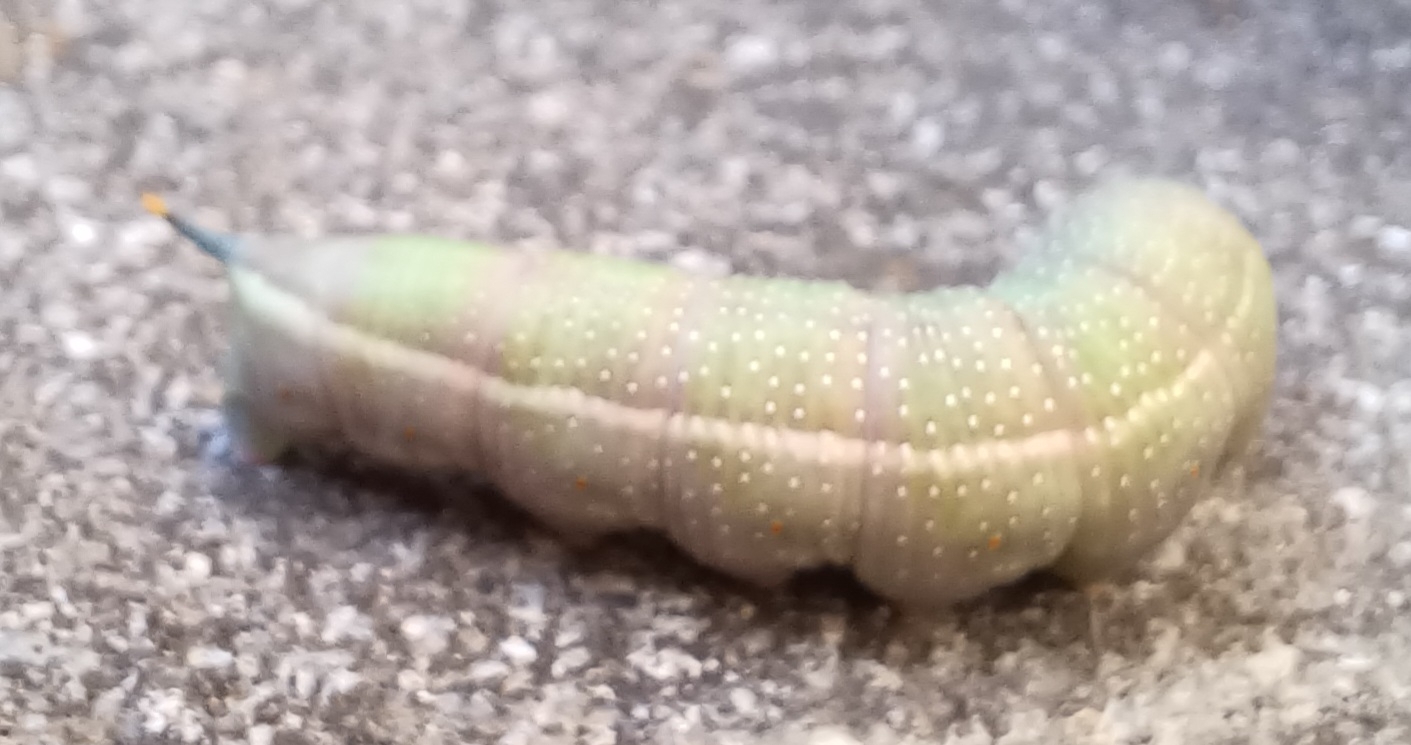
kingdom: Animalia
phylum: Arthropoda
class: Insecta
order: Lepidoptera
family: Sphingidae
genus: Macroglossum
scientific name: Macroglossum stellatarum
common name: Humming-bird hawk-moth
